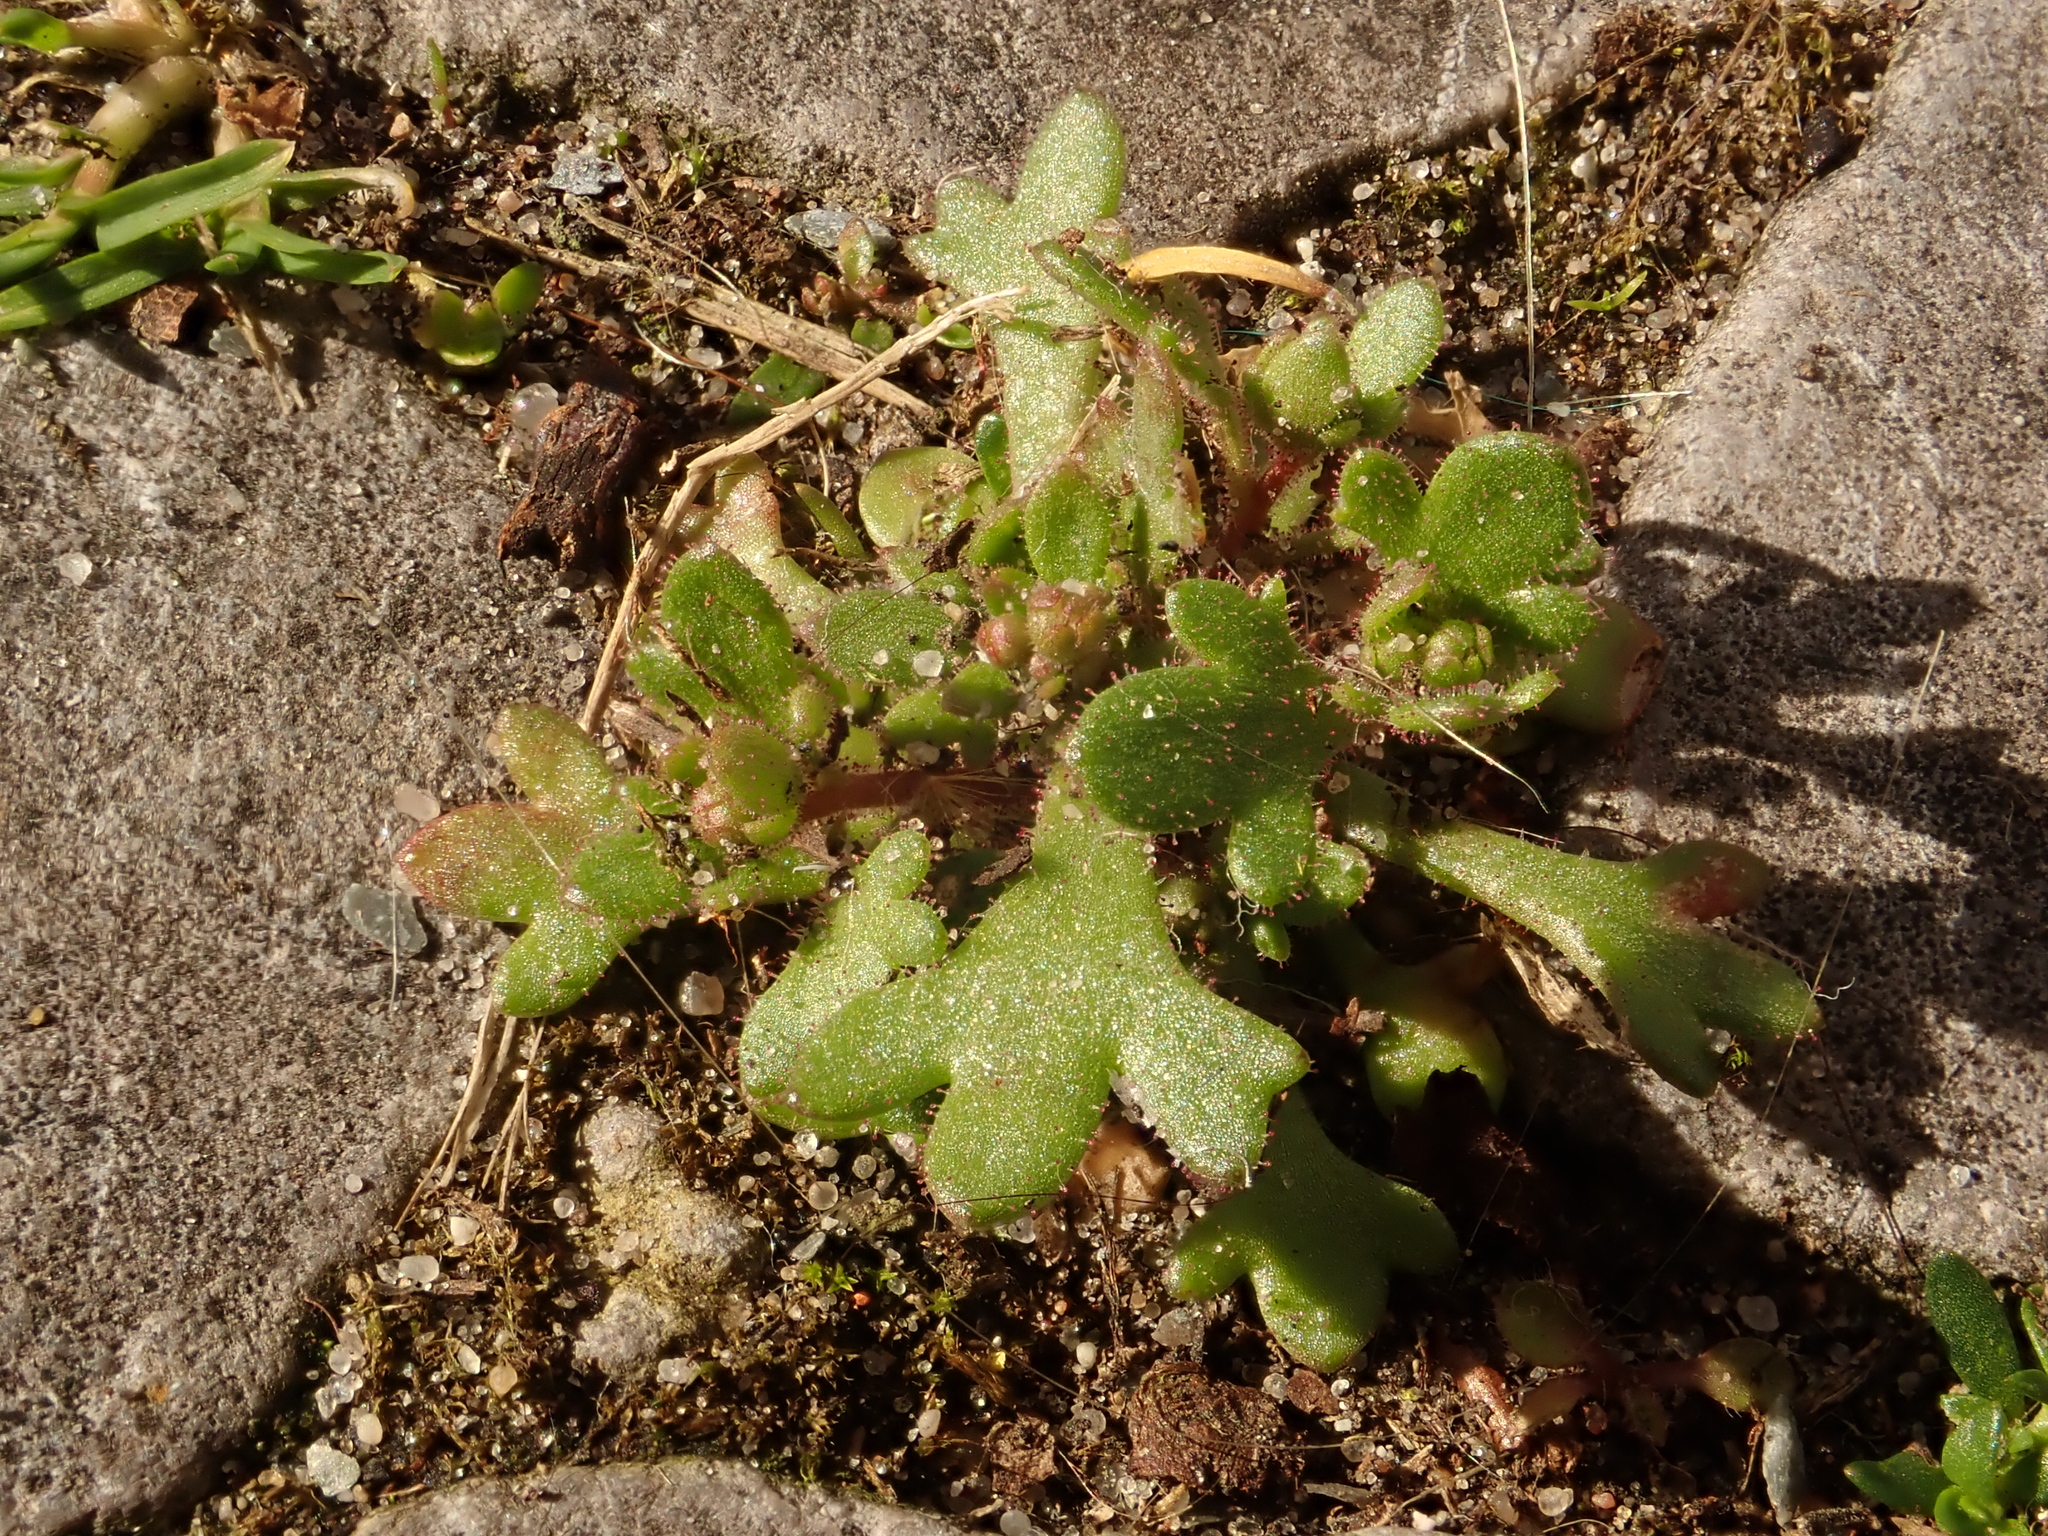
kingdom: Plantae
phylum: Tracheophyta
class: Magnoliopsida
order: Saxifragales
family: Saxifragaceae
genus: Saxifraga
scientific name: Saxifraga tridactylites
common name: Rue-leaved saxifrage
